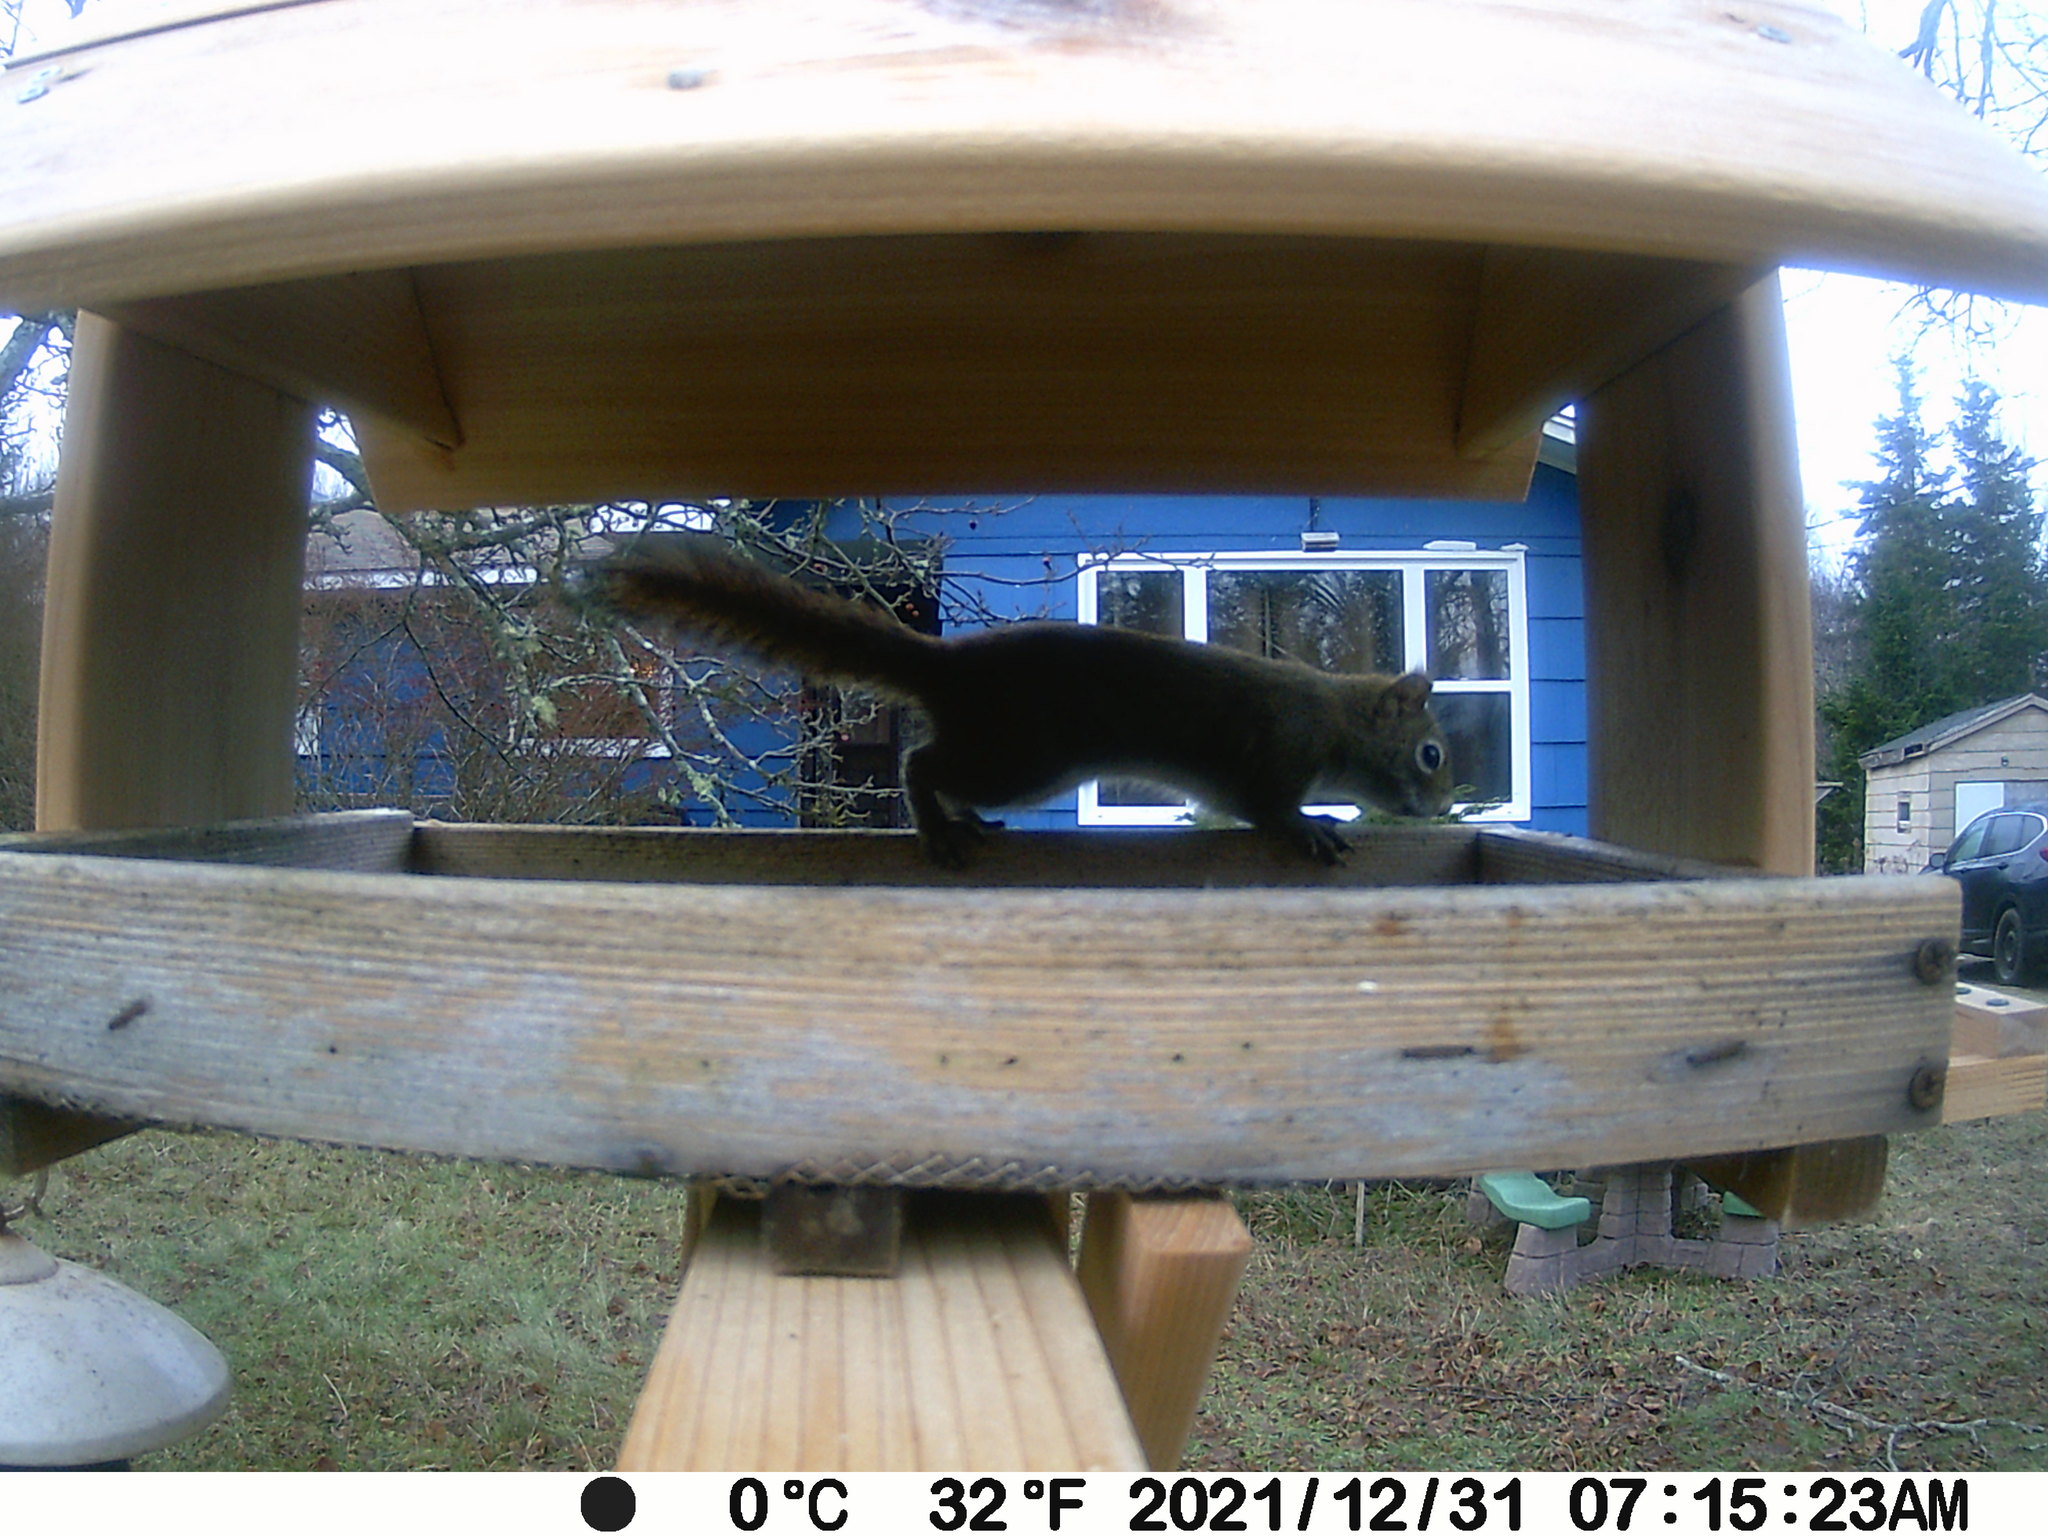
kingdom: Animalia
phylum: Chordata
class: Mammalia
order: Rodentia
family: Sciuridae
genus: Tamiasciurus
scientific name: Tamiasciurus hudsonicus
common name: Red squirrel
